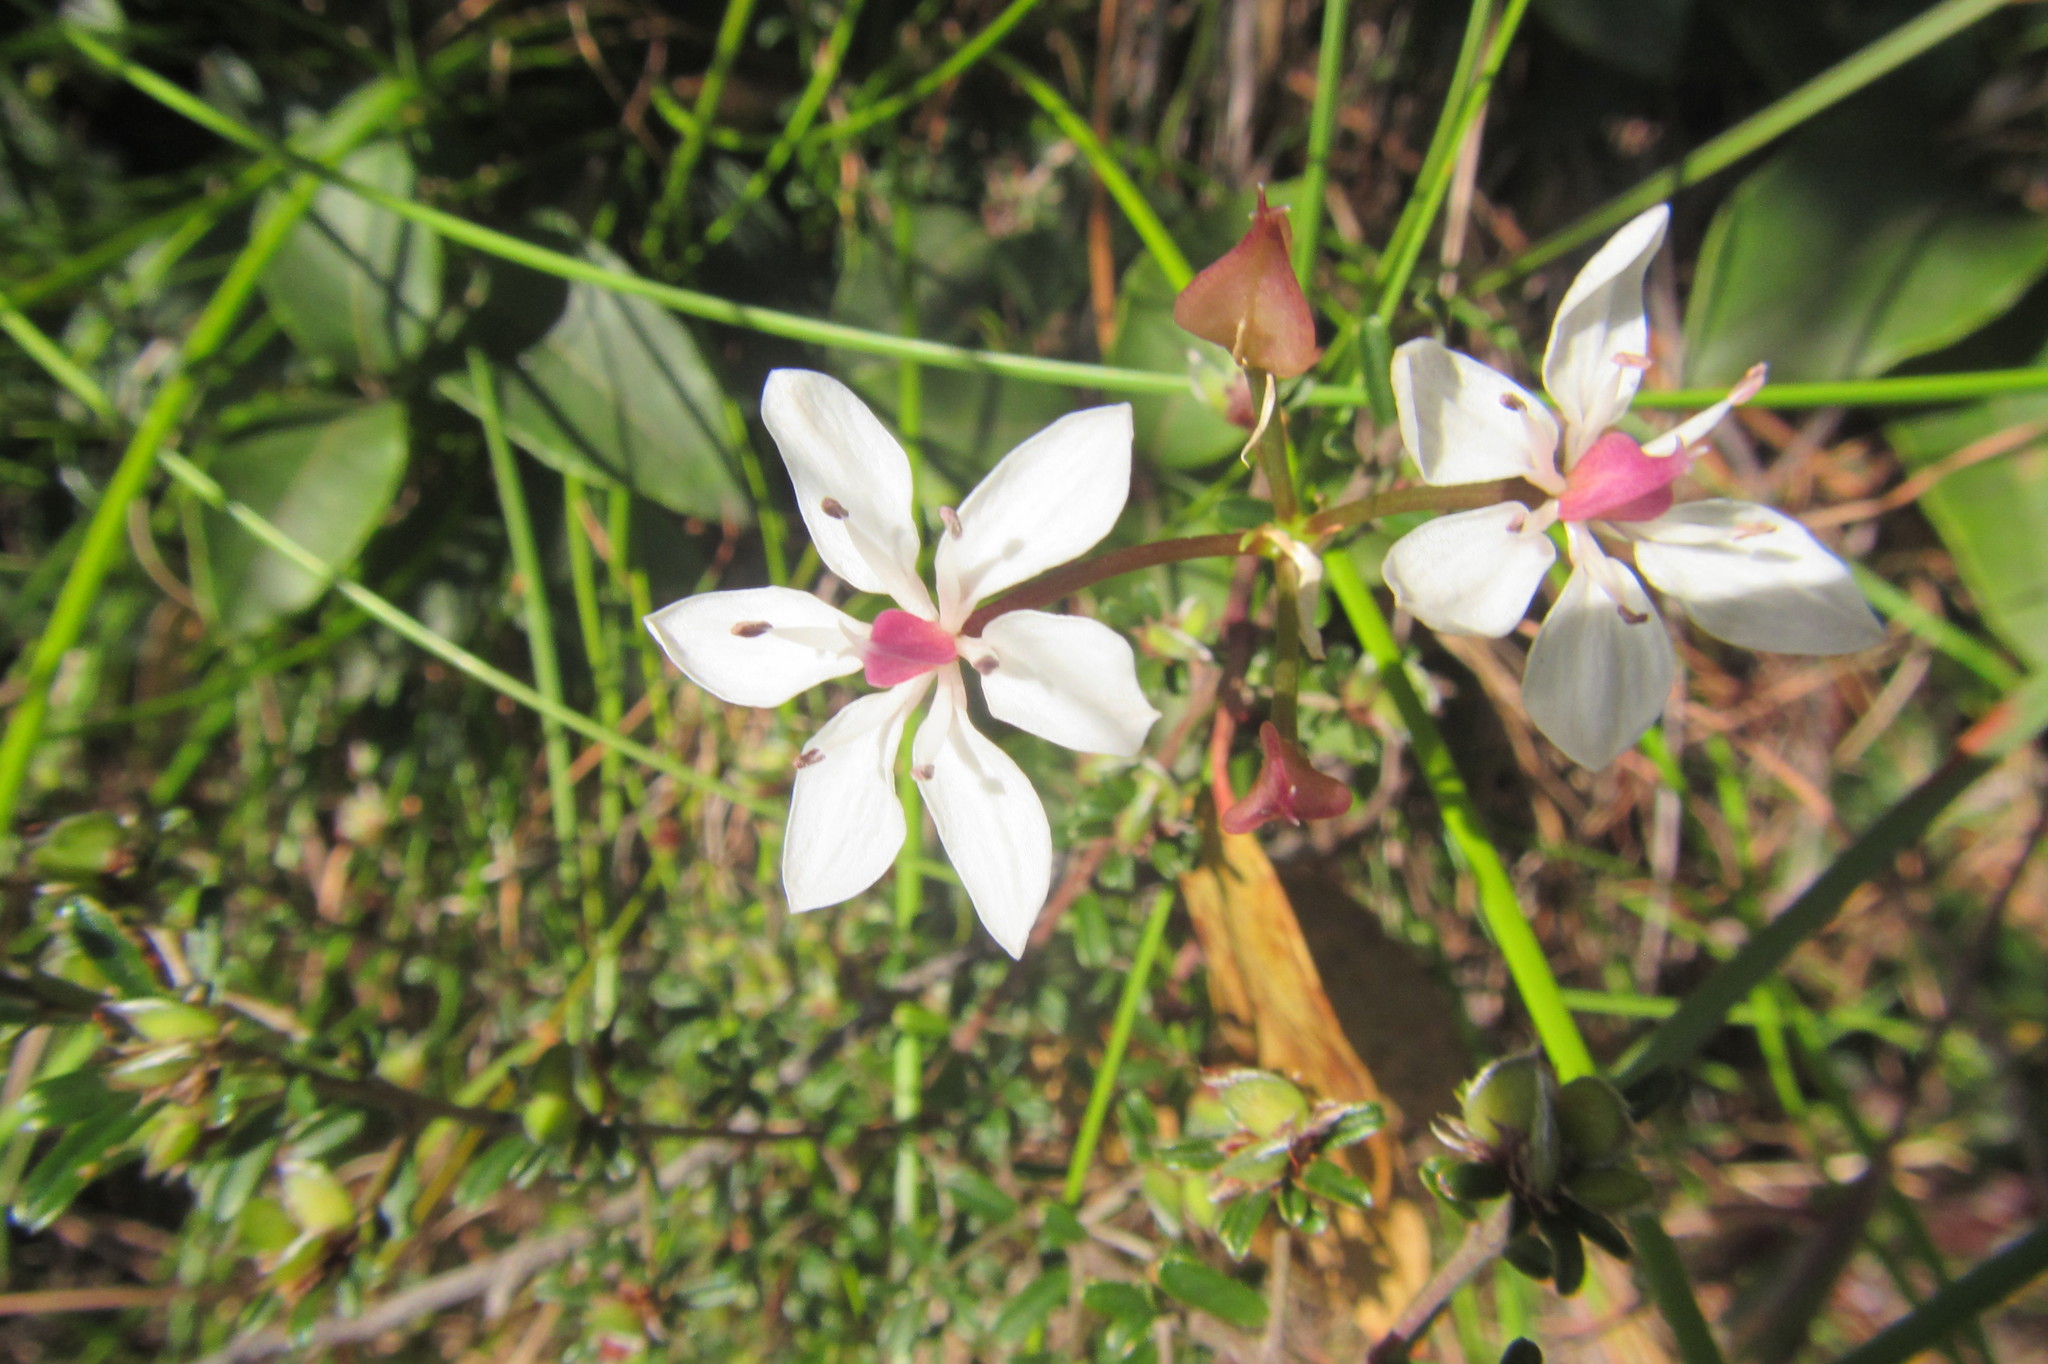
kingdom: Plantae
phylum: Tracheophyta
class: Liliopsida
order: Liliales
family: Colchicaceae
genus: Burchardia
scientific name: Burchardia umbellata
